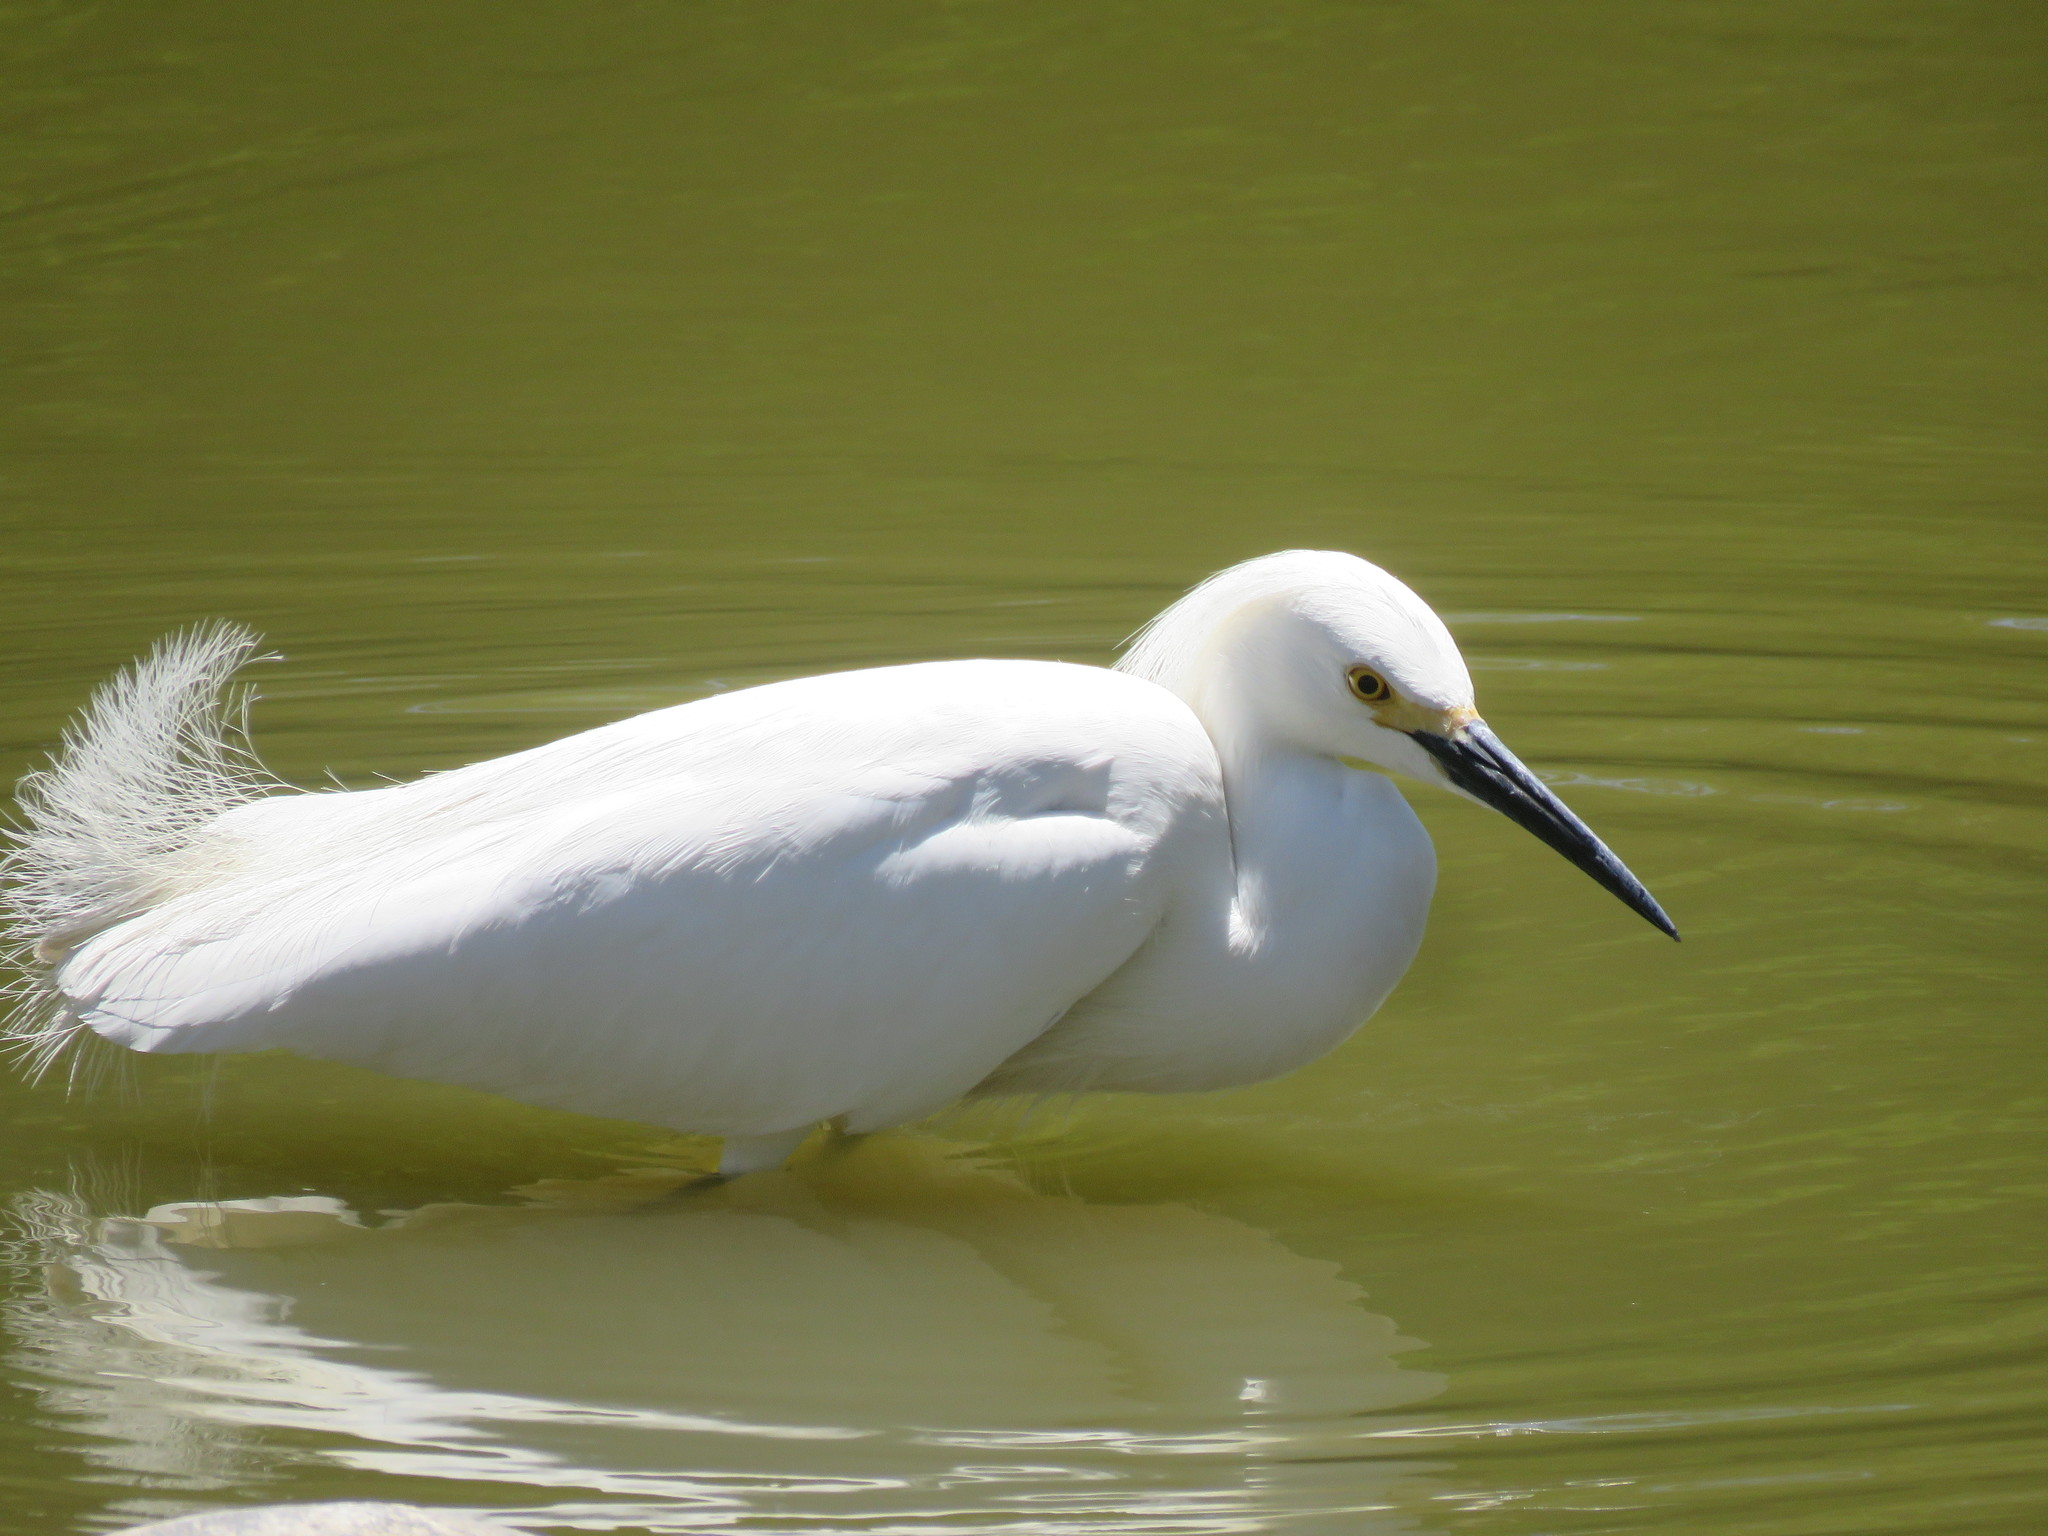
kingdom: Animalia
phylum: Chordata
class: Aves
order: Pelecaniformes
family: Ardeidae
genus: Egretta
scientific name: Egretta thula
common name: Snowy egret
